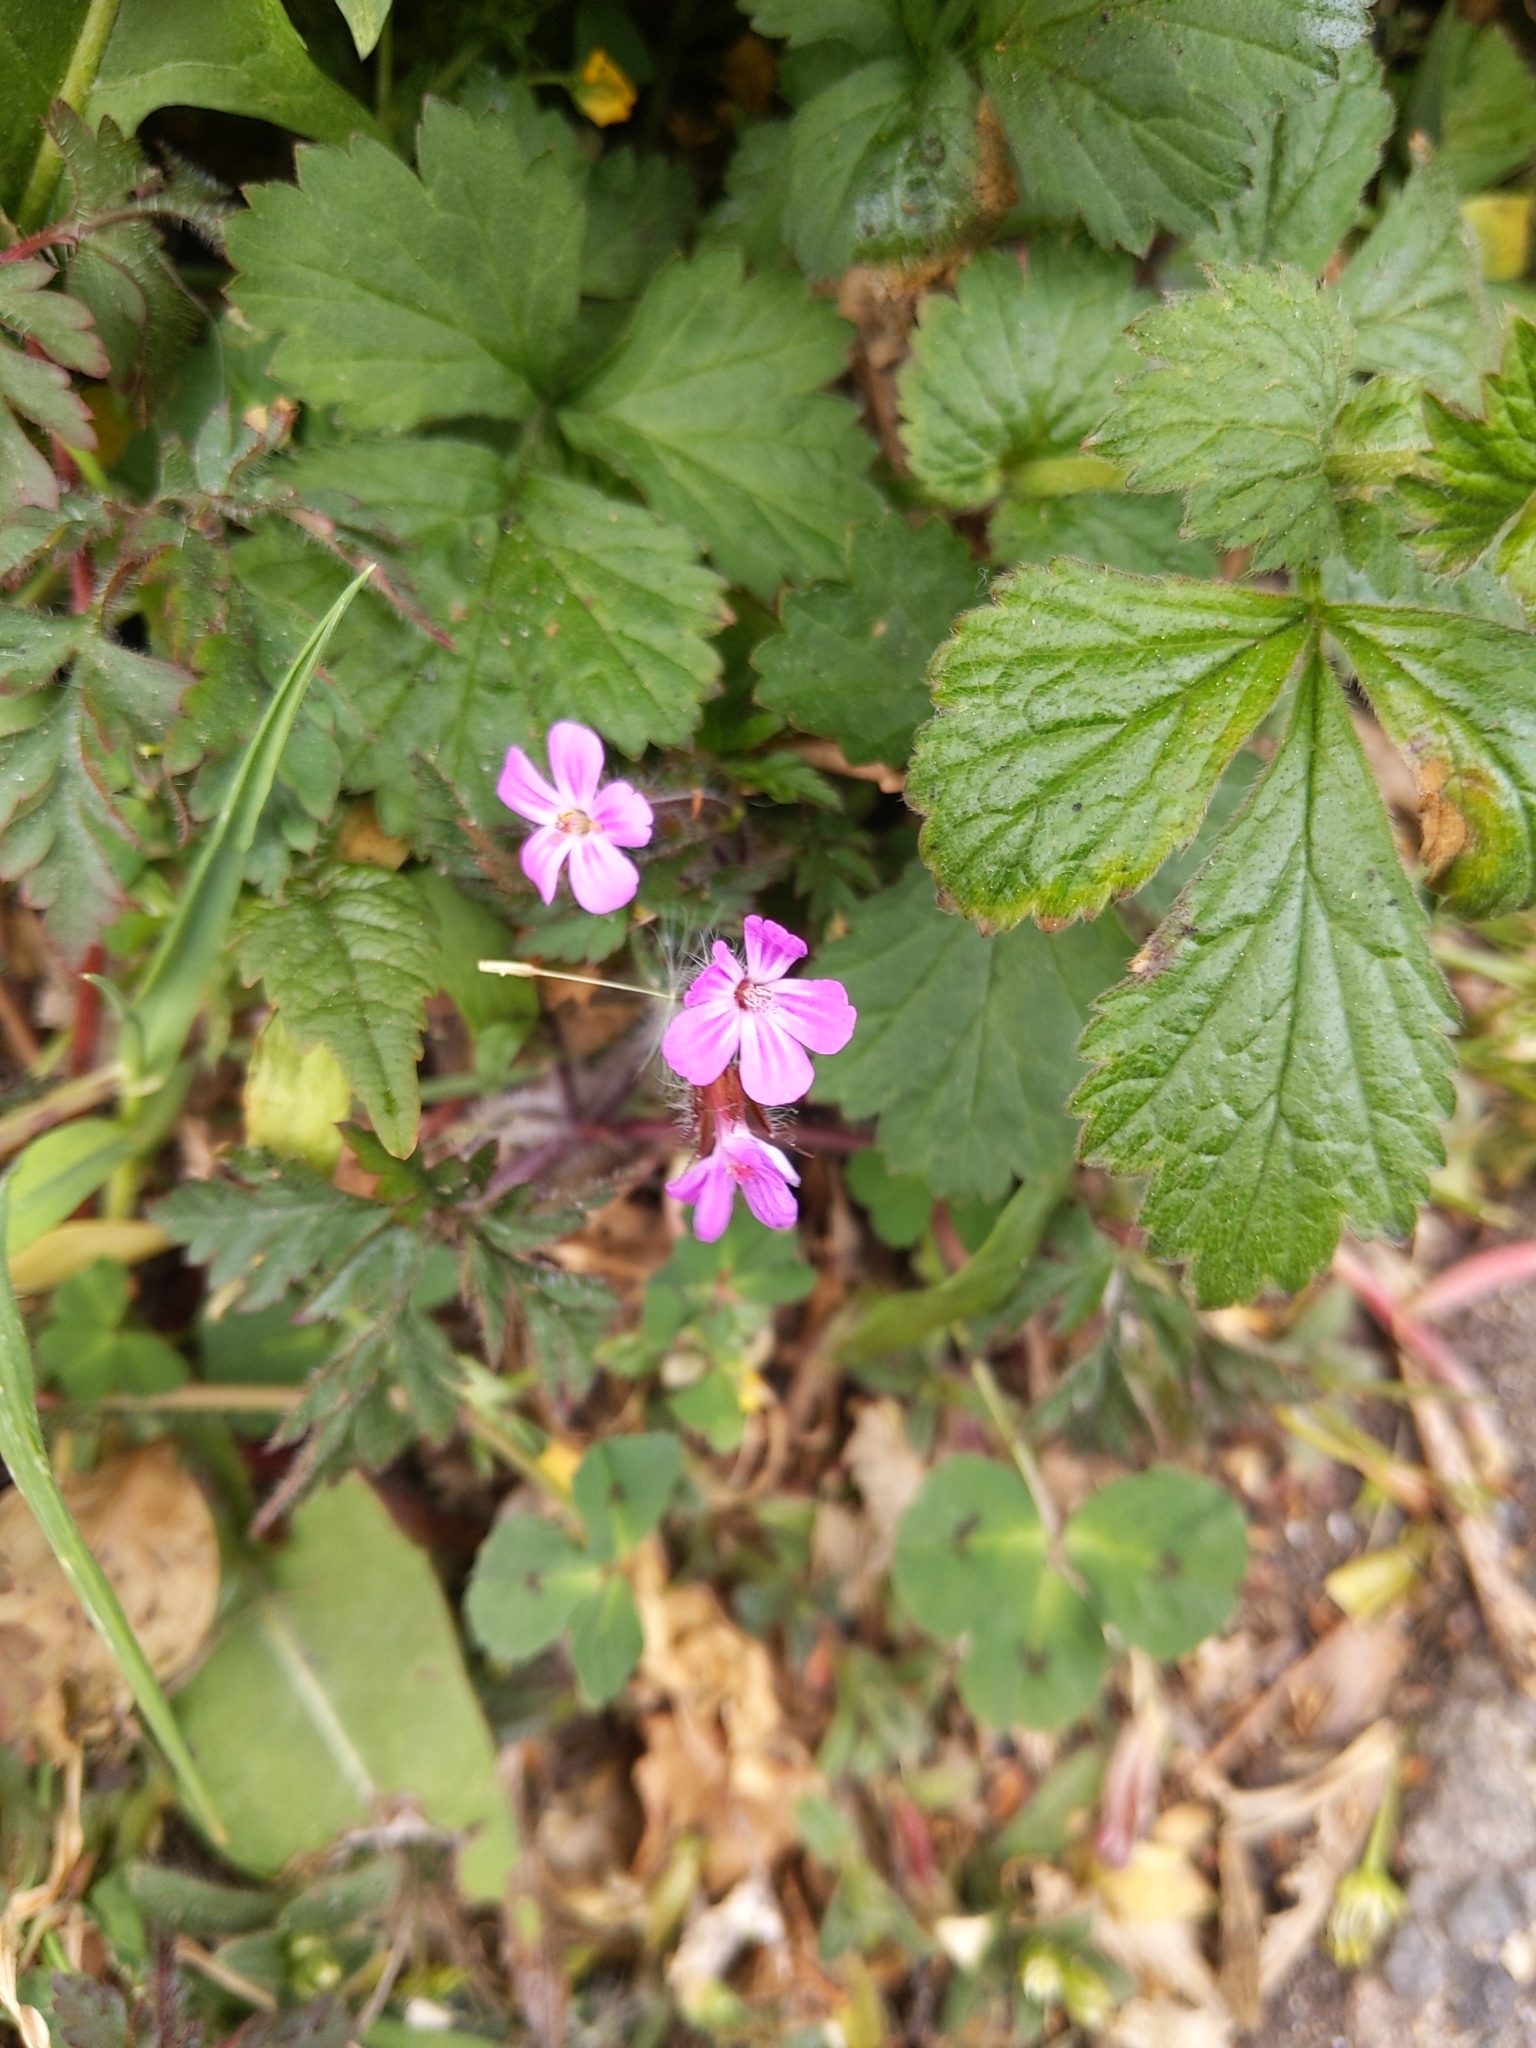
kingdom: Plantae
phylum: Tracheophyta
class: Magnoliopsida
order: Geraniales
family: Geraniaceae
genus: Geranium
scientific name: Geranium robertianum
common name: Herb-robert
